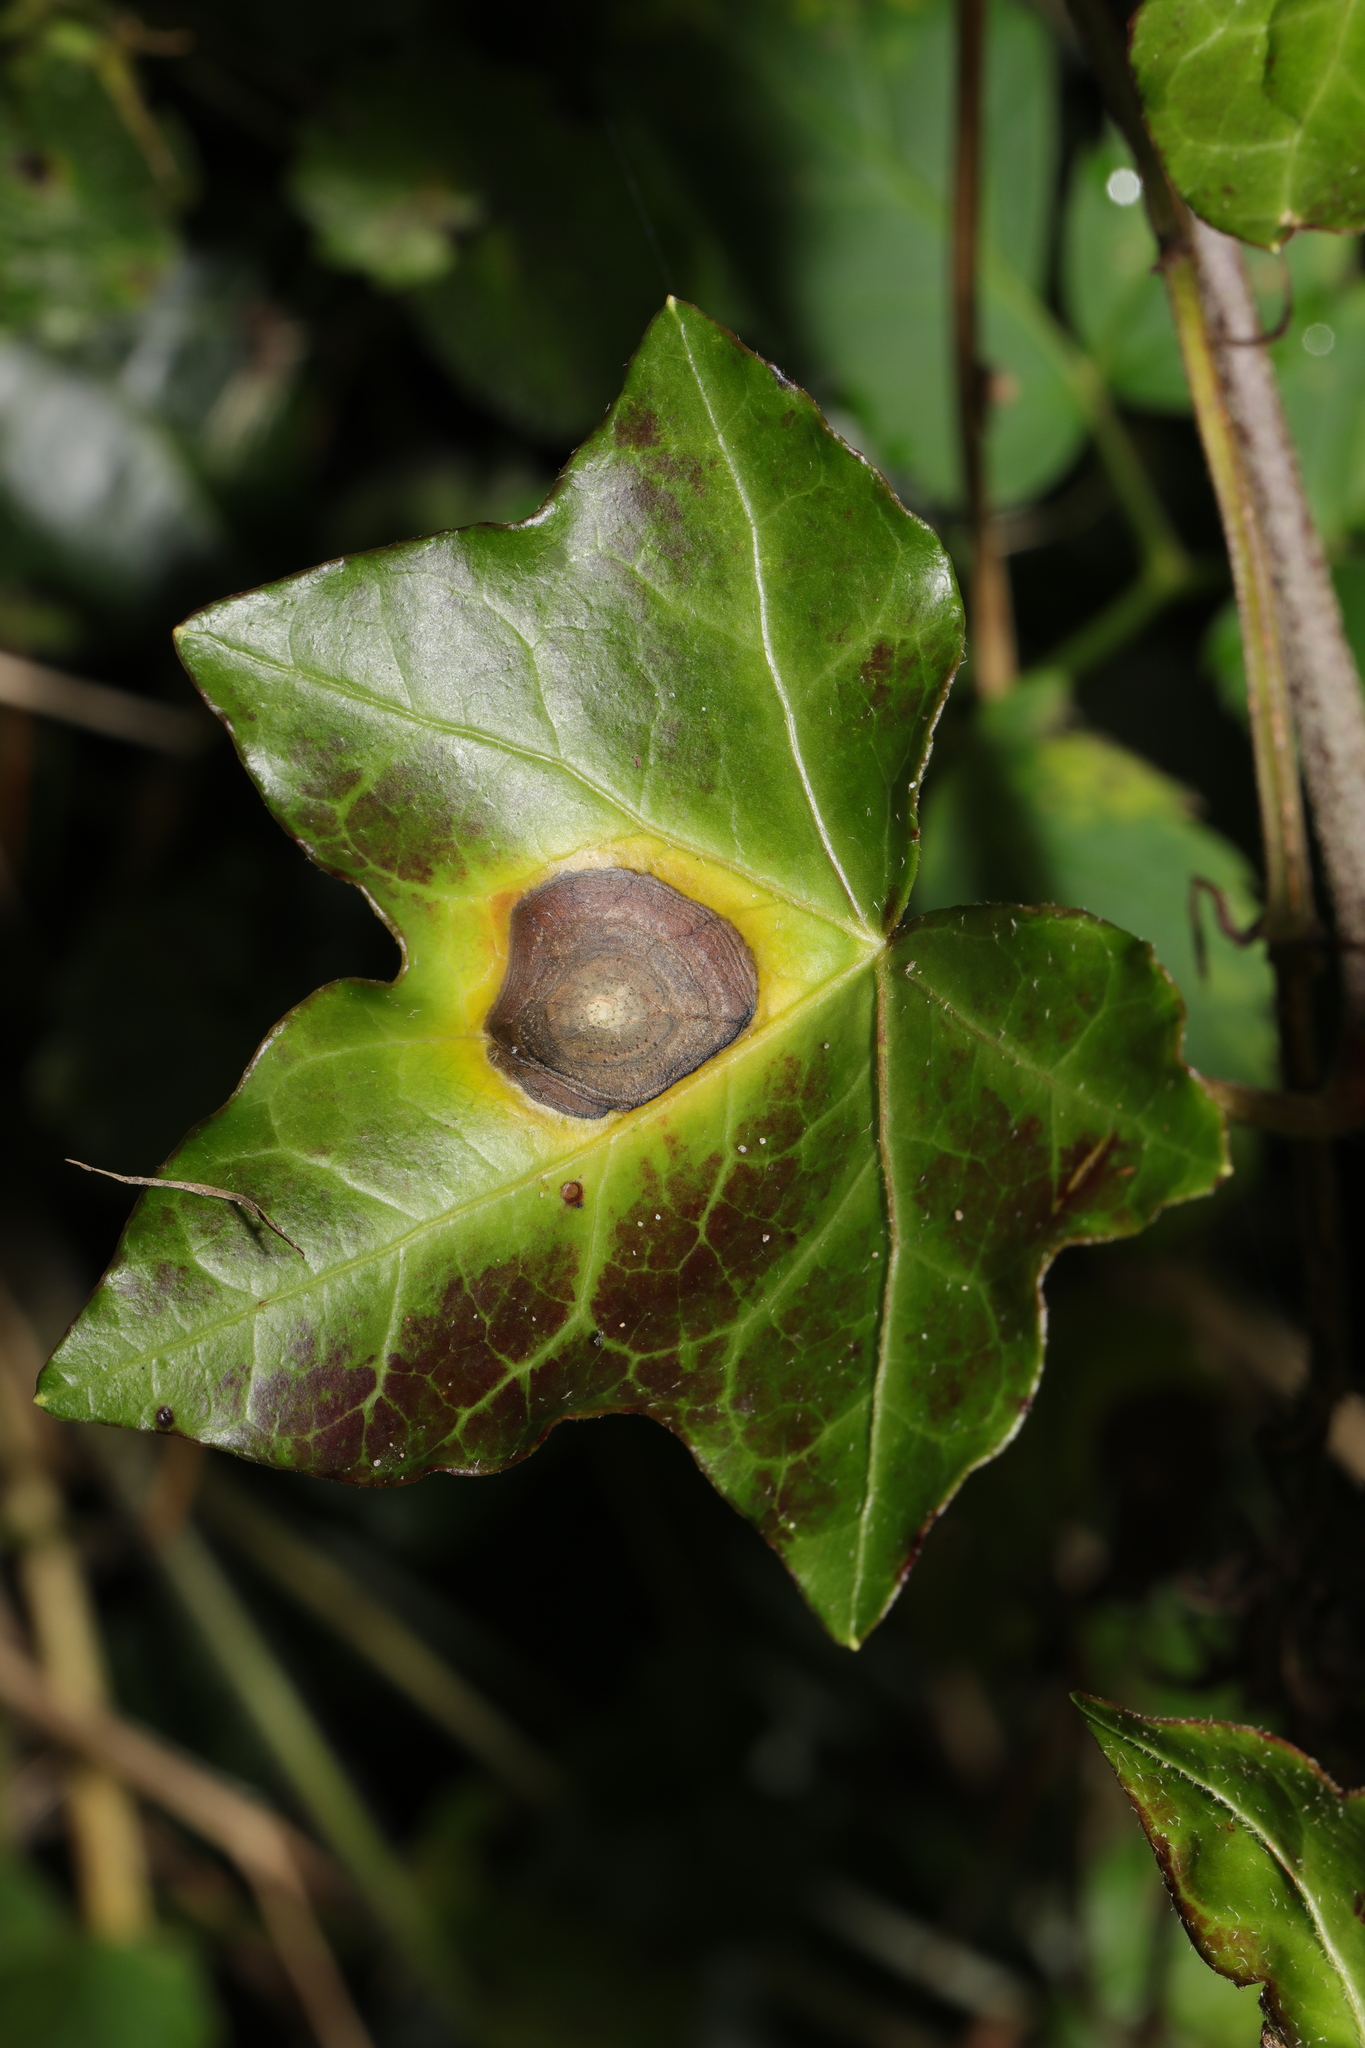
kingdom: Fungi
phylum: Ascomycota
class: Dothideomycetes
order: Pleosporales
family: Didymellaceae
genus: Boeremia
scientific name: Boeremia hedericola
